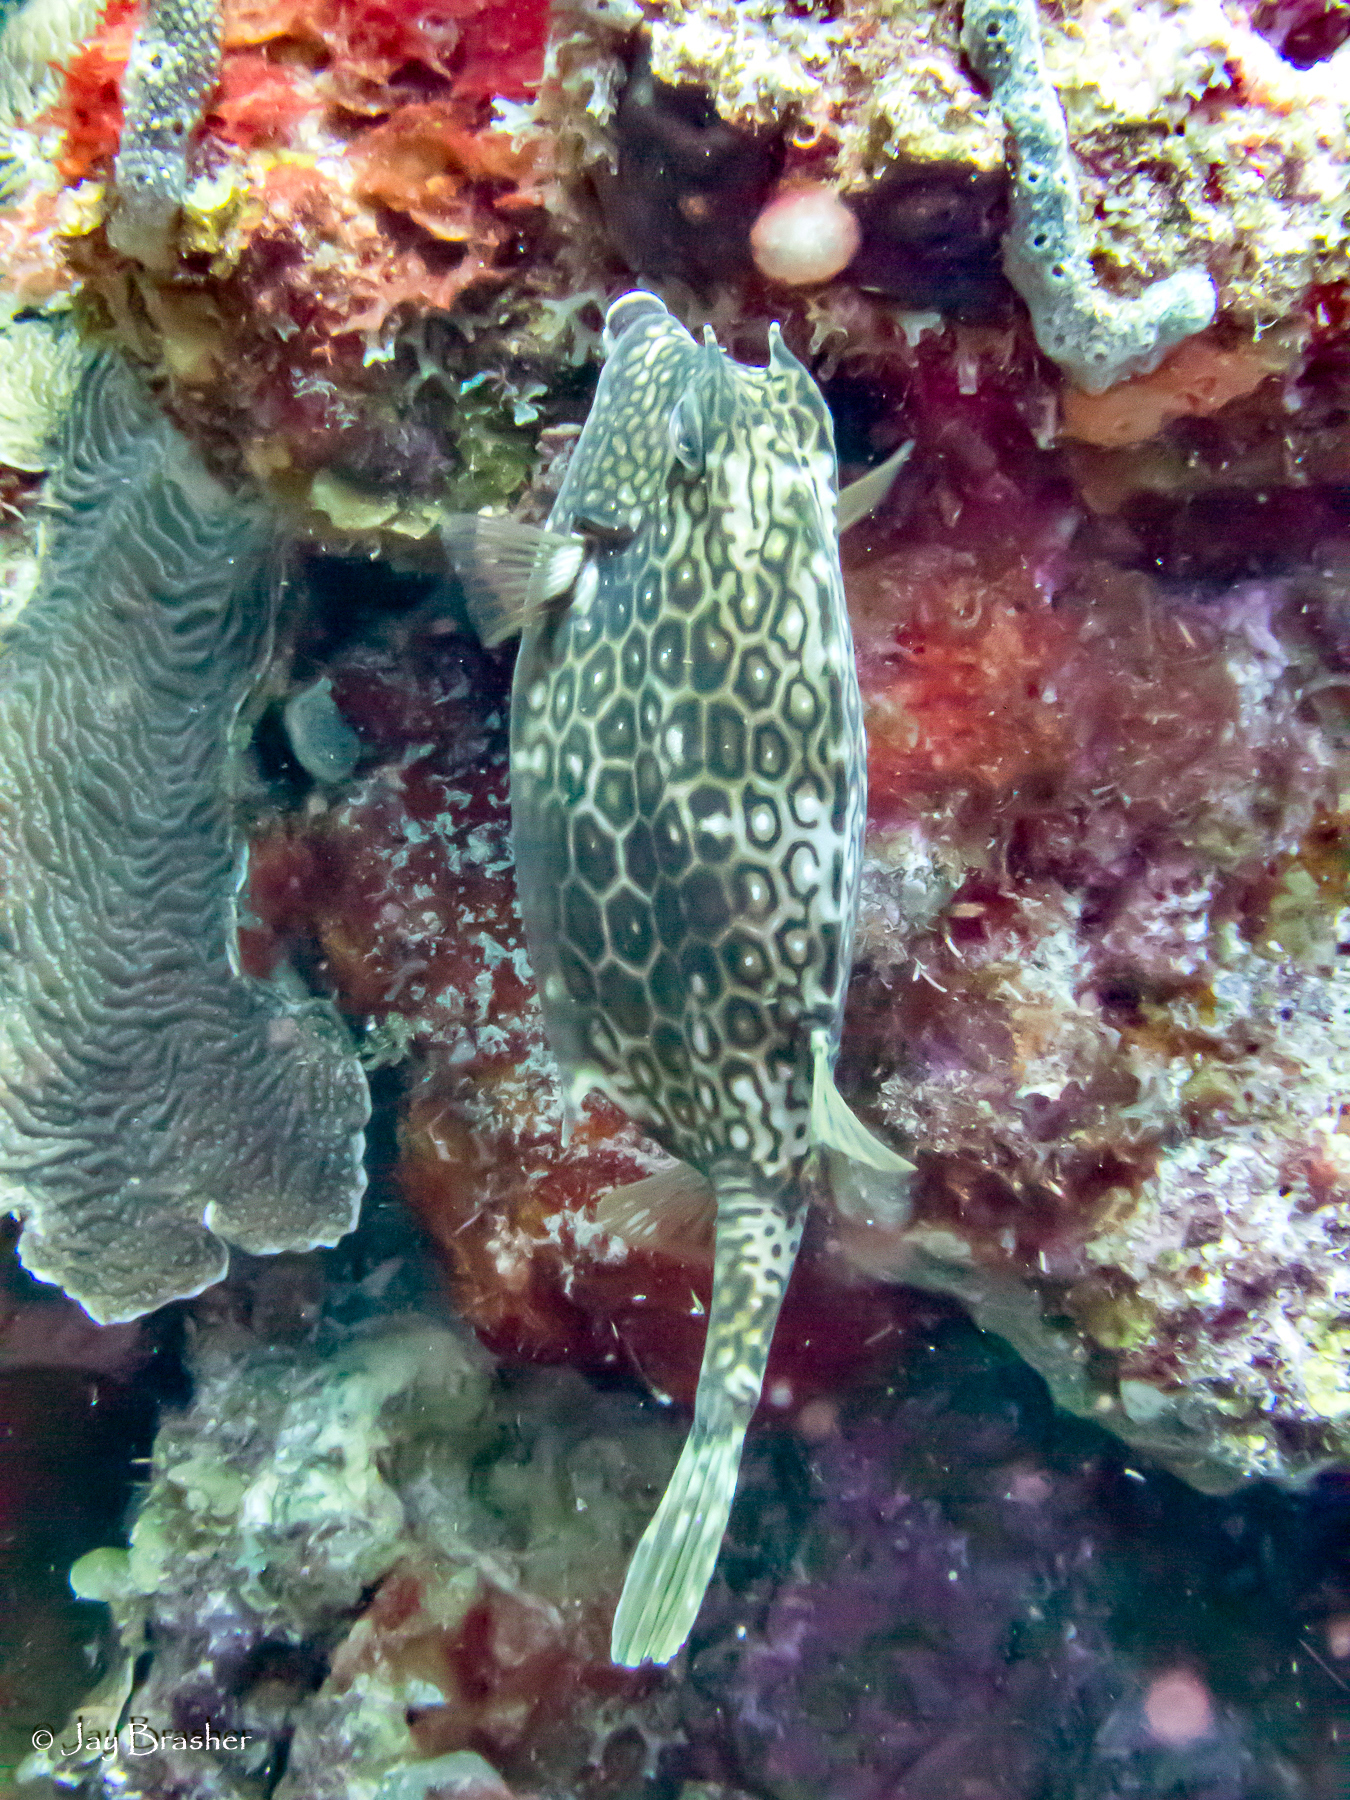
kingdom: Animalia
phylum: Chordata
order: Tetraodontiformes
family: Ostraciidae
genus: Acanthostracion
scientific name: Acanthostracion polygonius
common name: Honeycomb cowfish
